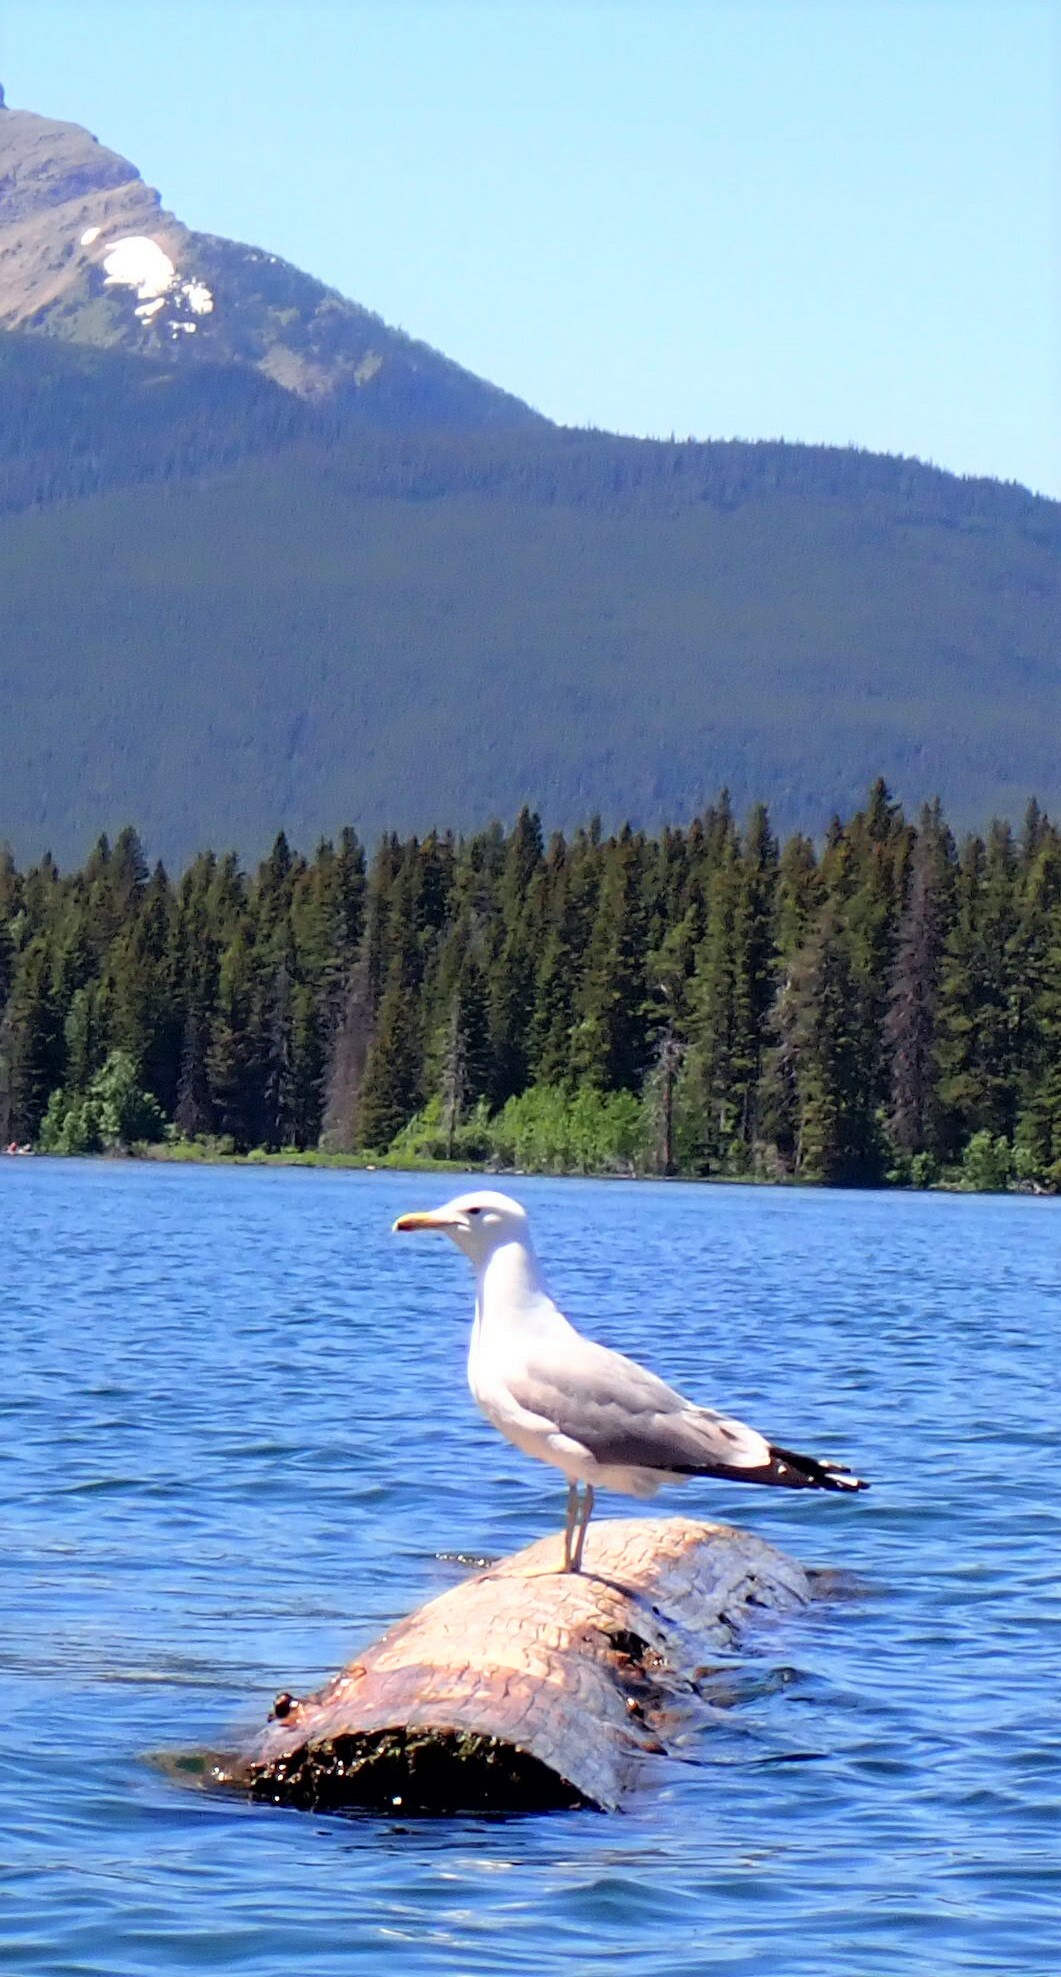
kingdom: Animalia
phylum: Chordata
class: Aves
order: Charadriiformes
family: Laridae
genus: Larus
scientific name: Larus californicus
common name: California gull
